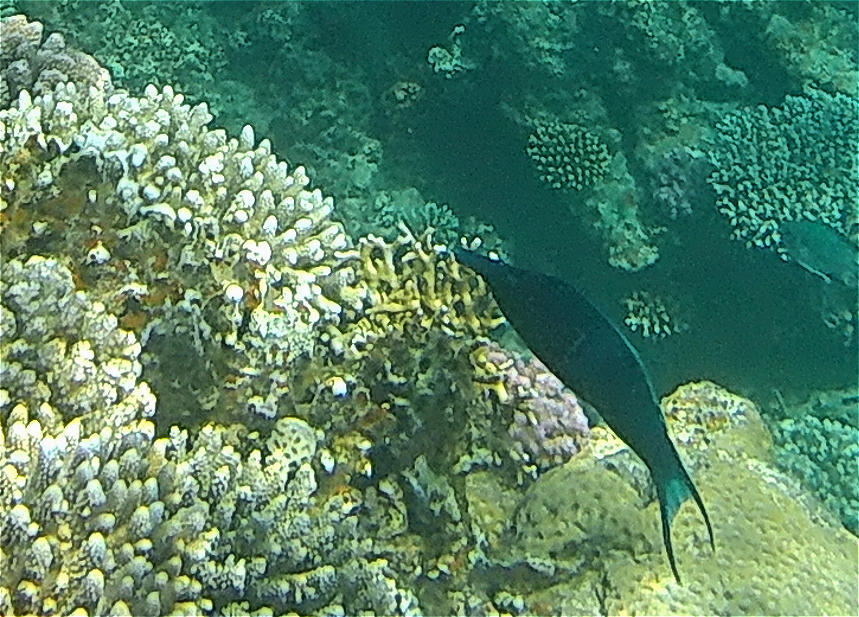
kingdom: Animalia
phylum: Chordata
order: Perciformes
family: Labridae
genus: Gomphosus
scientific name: Gomphosus klunzingeri
